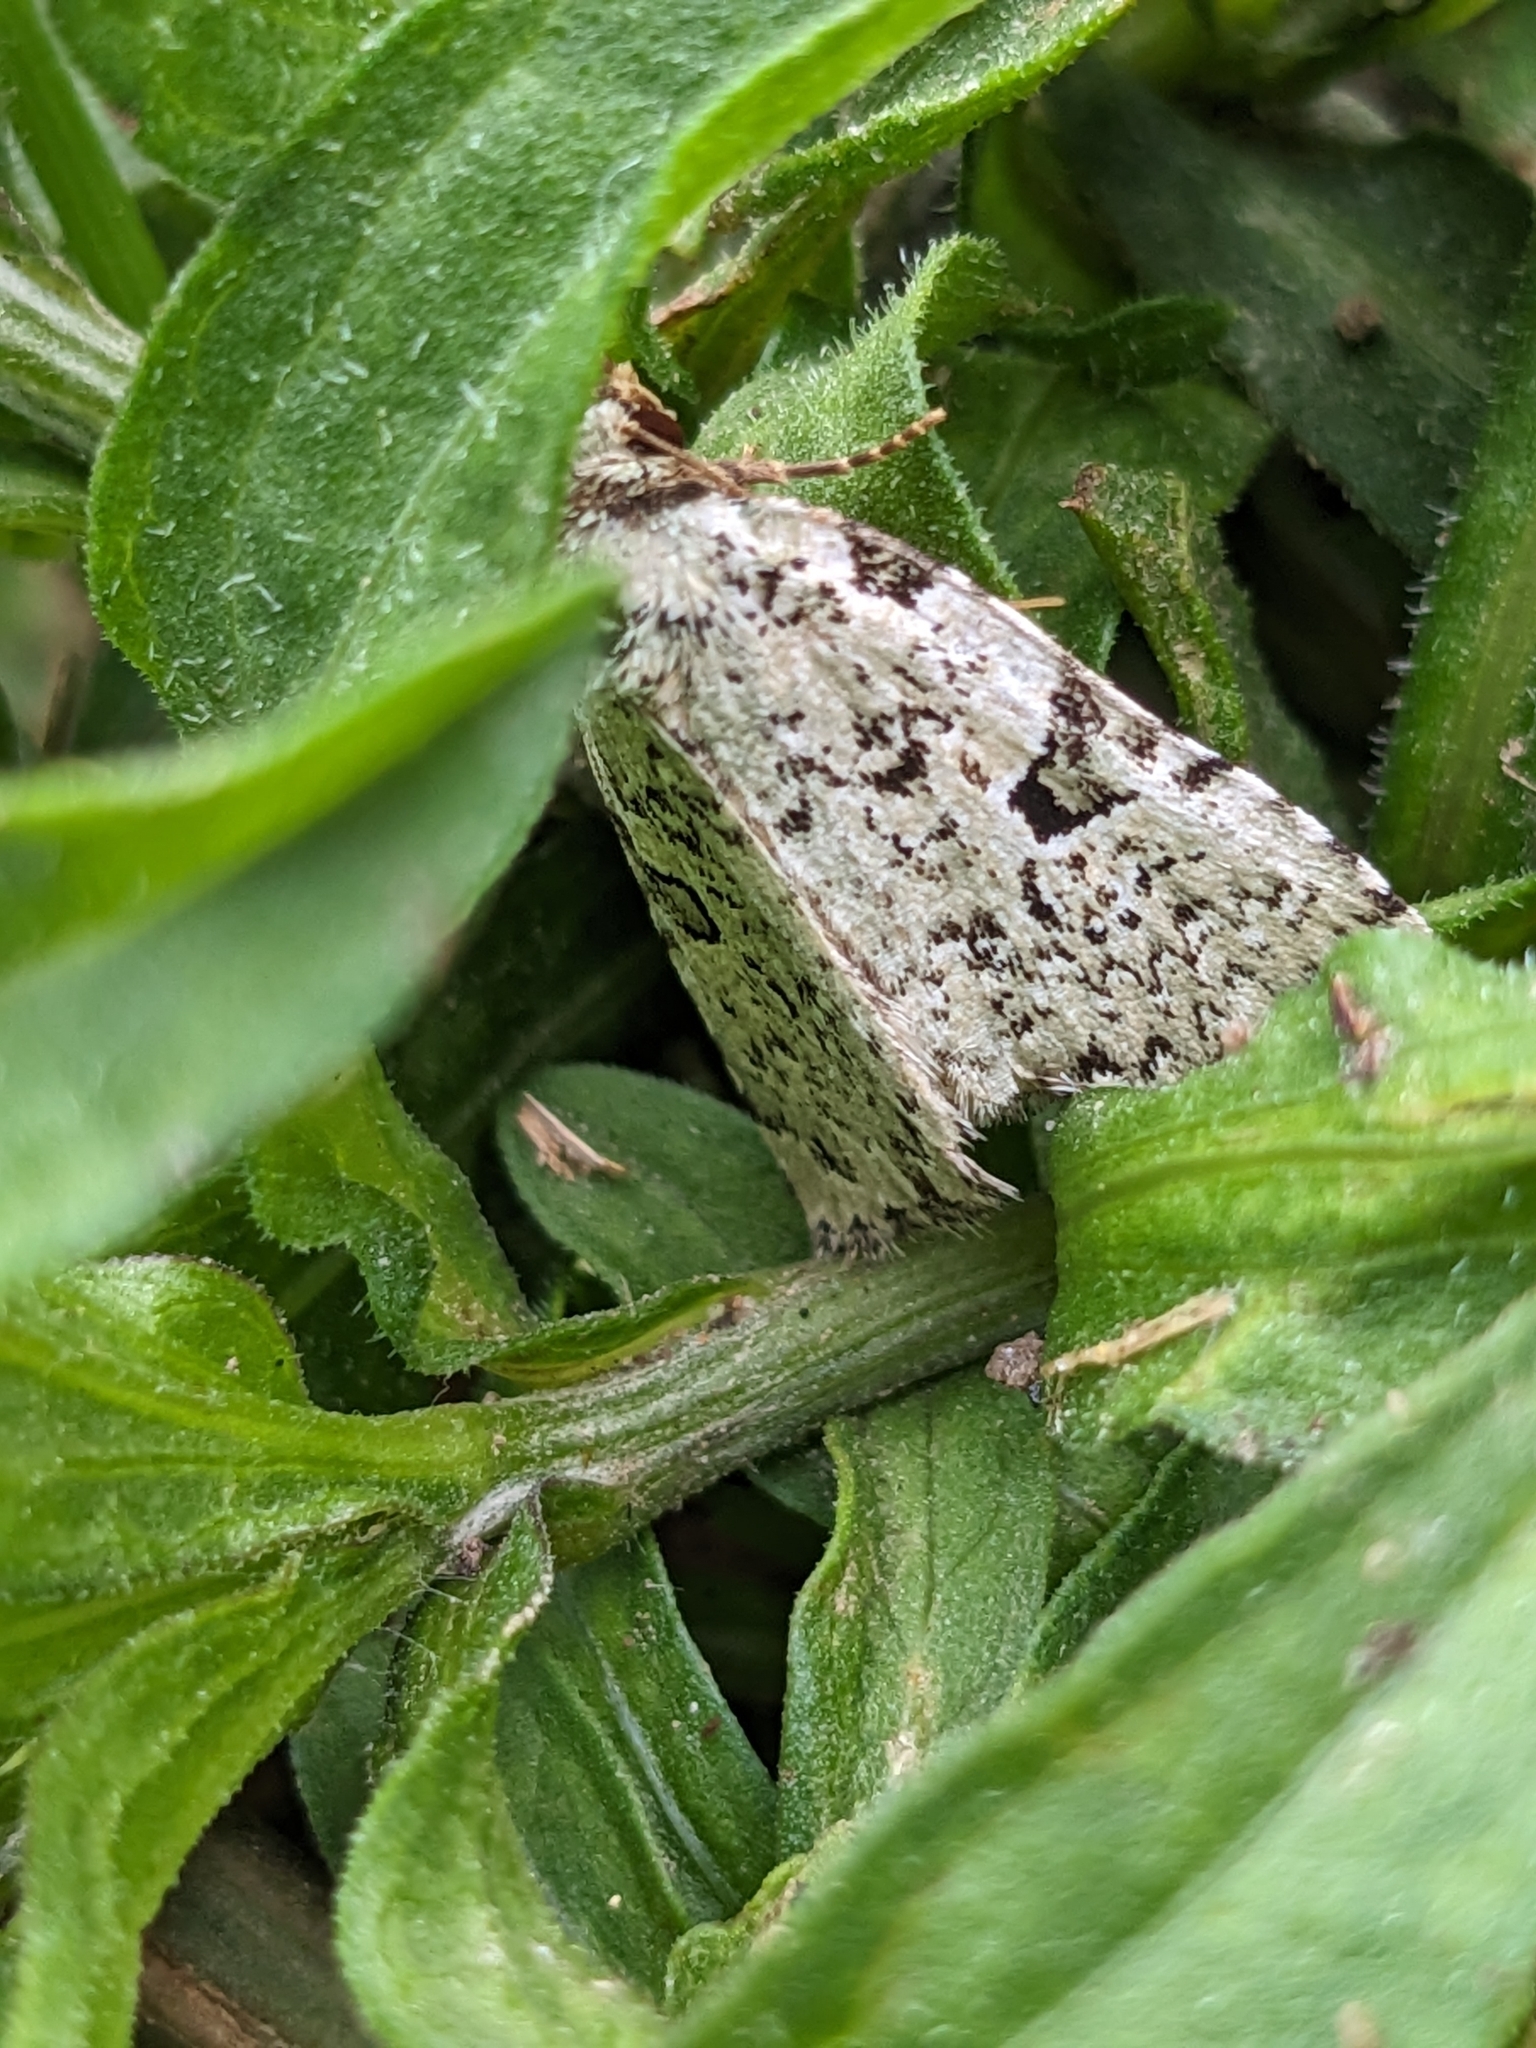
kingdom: Animalia
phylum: Arthropoda
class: Insecta
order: Lepidoptera
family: Noctuidae
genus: Leuconycta
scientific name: Leuconycta diphteroides
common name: Green leuconycta moth
